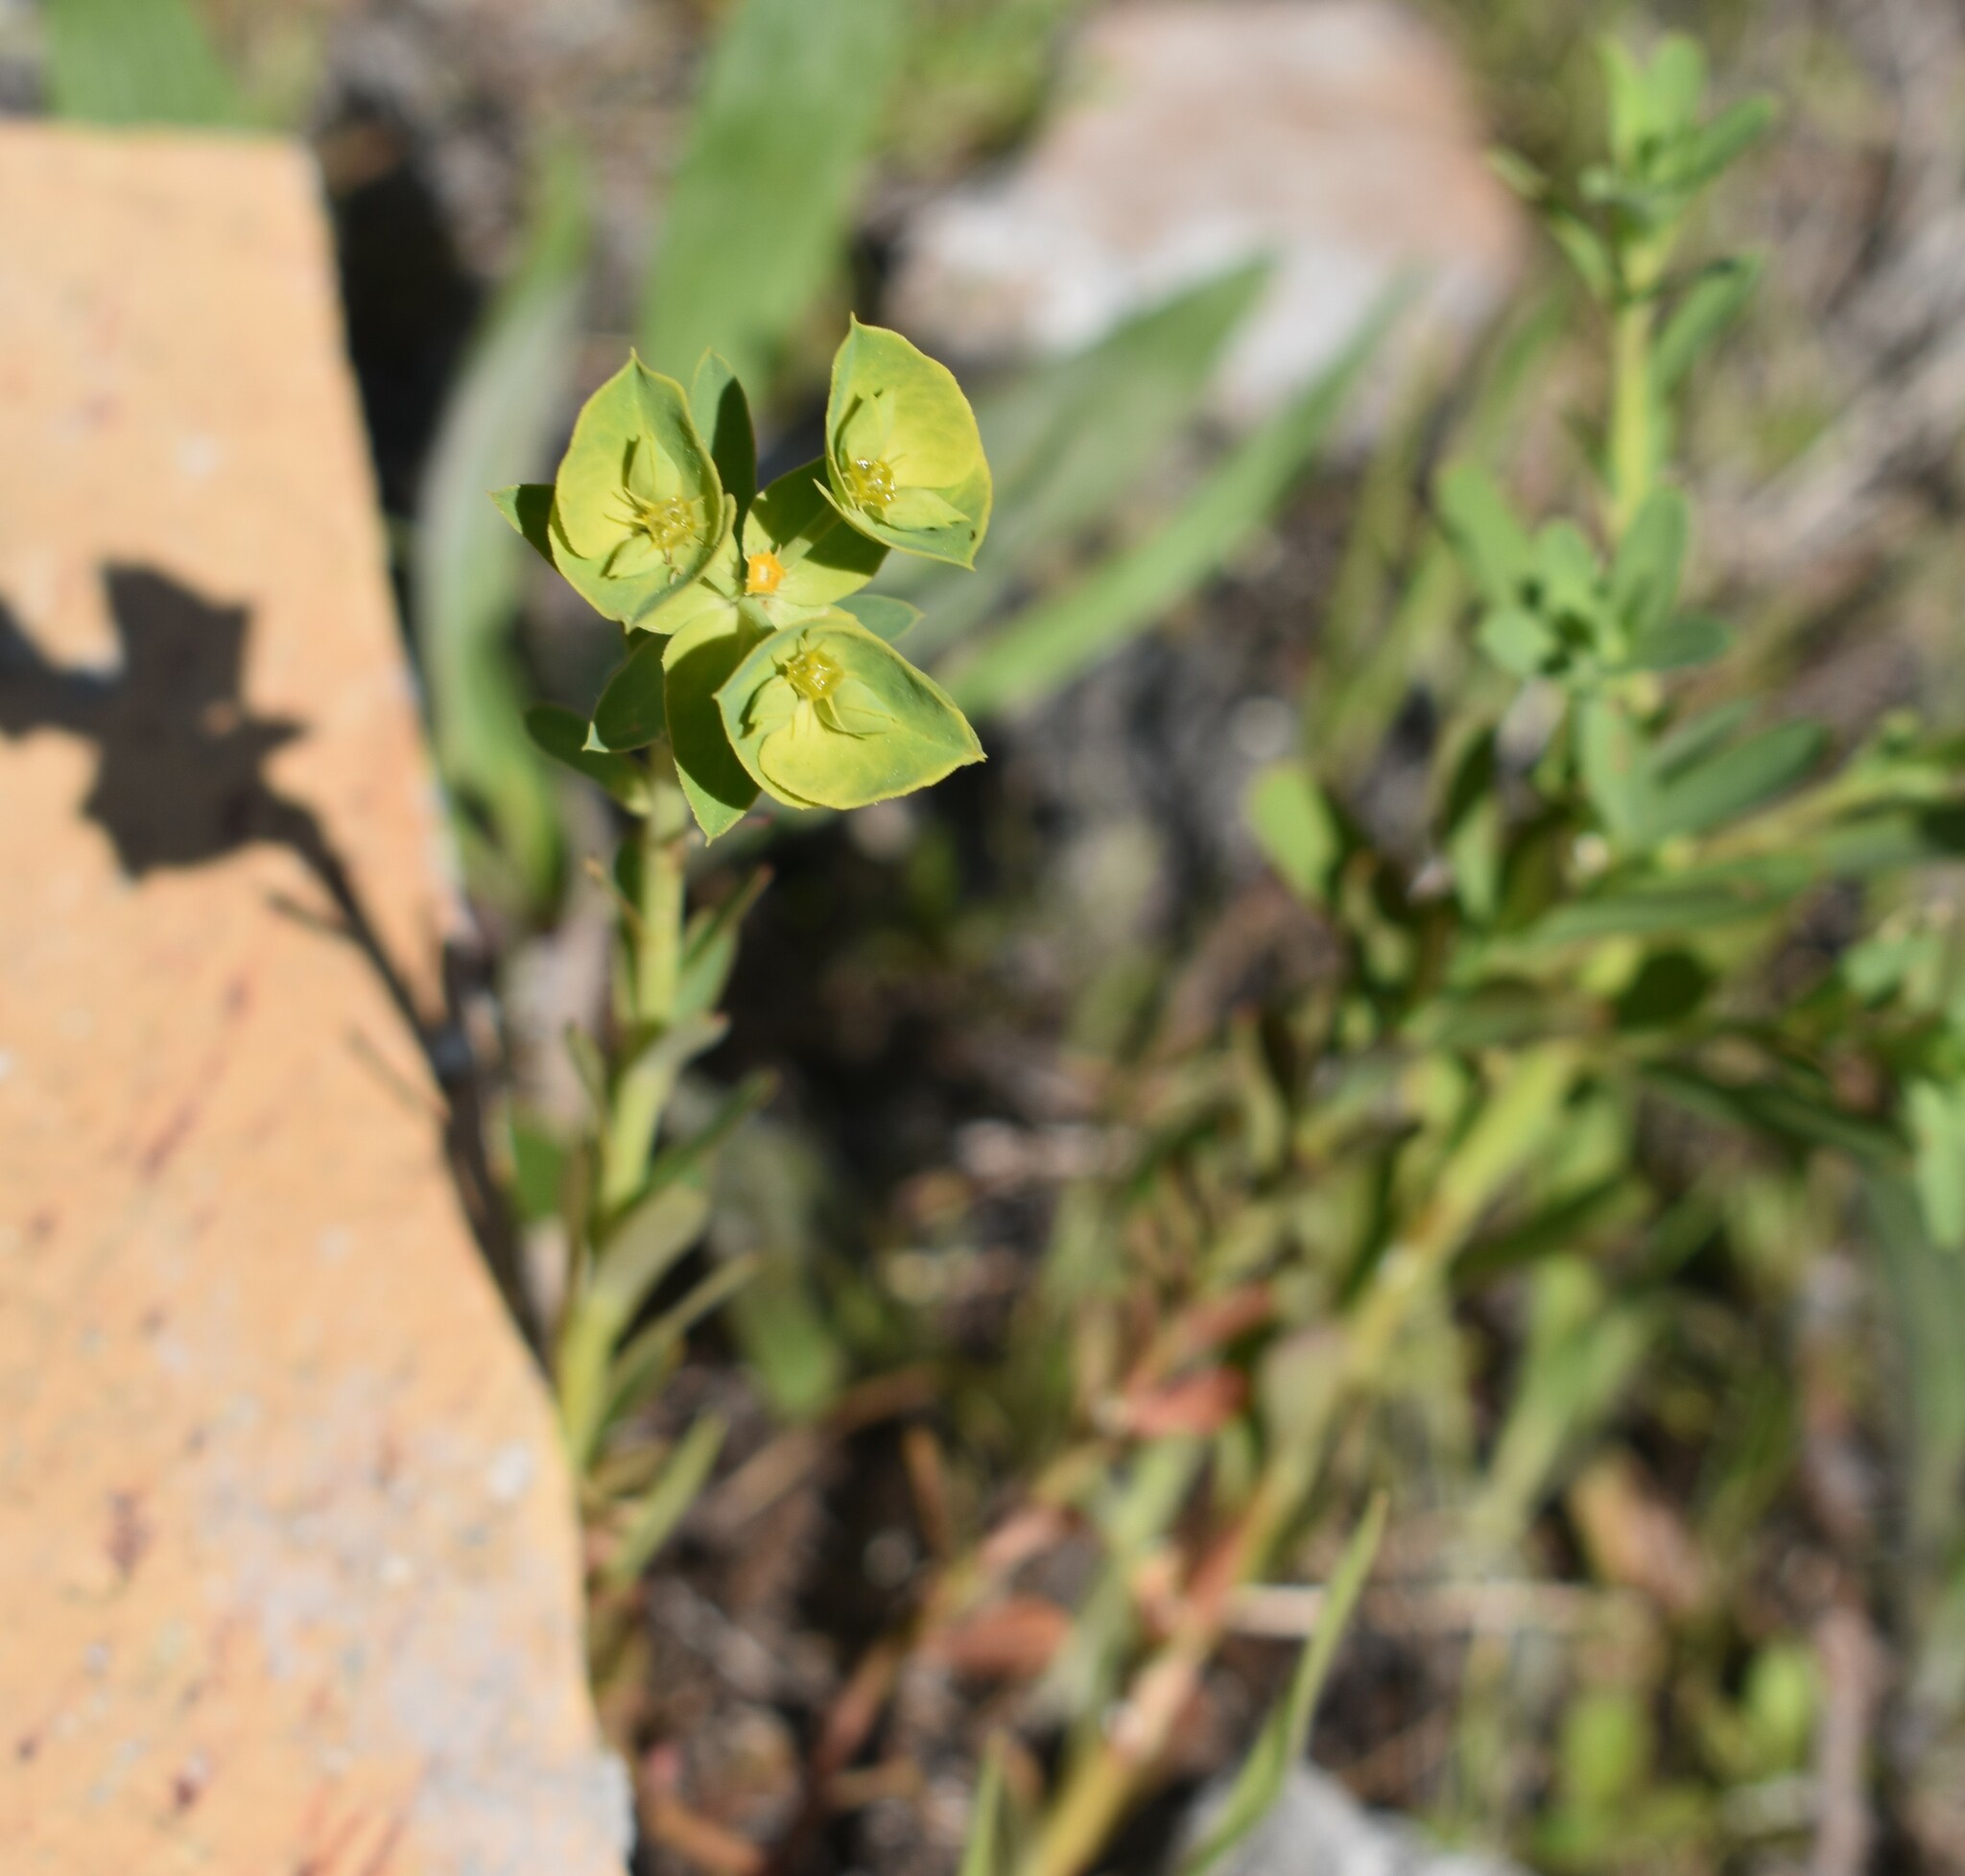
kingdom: Plantae
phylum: Tracheophyta
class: Magnoliopsida
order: Malpighiales
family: Euphorbiaceae
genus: Euphorbia
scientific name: Euphorbia terracina
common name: Geraldton carnation weed
